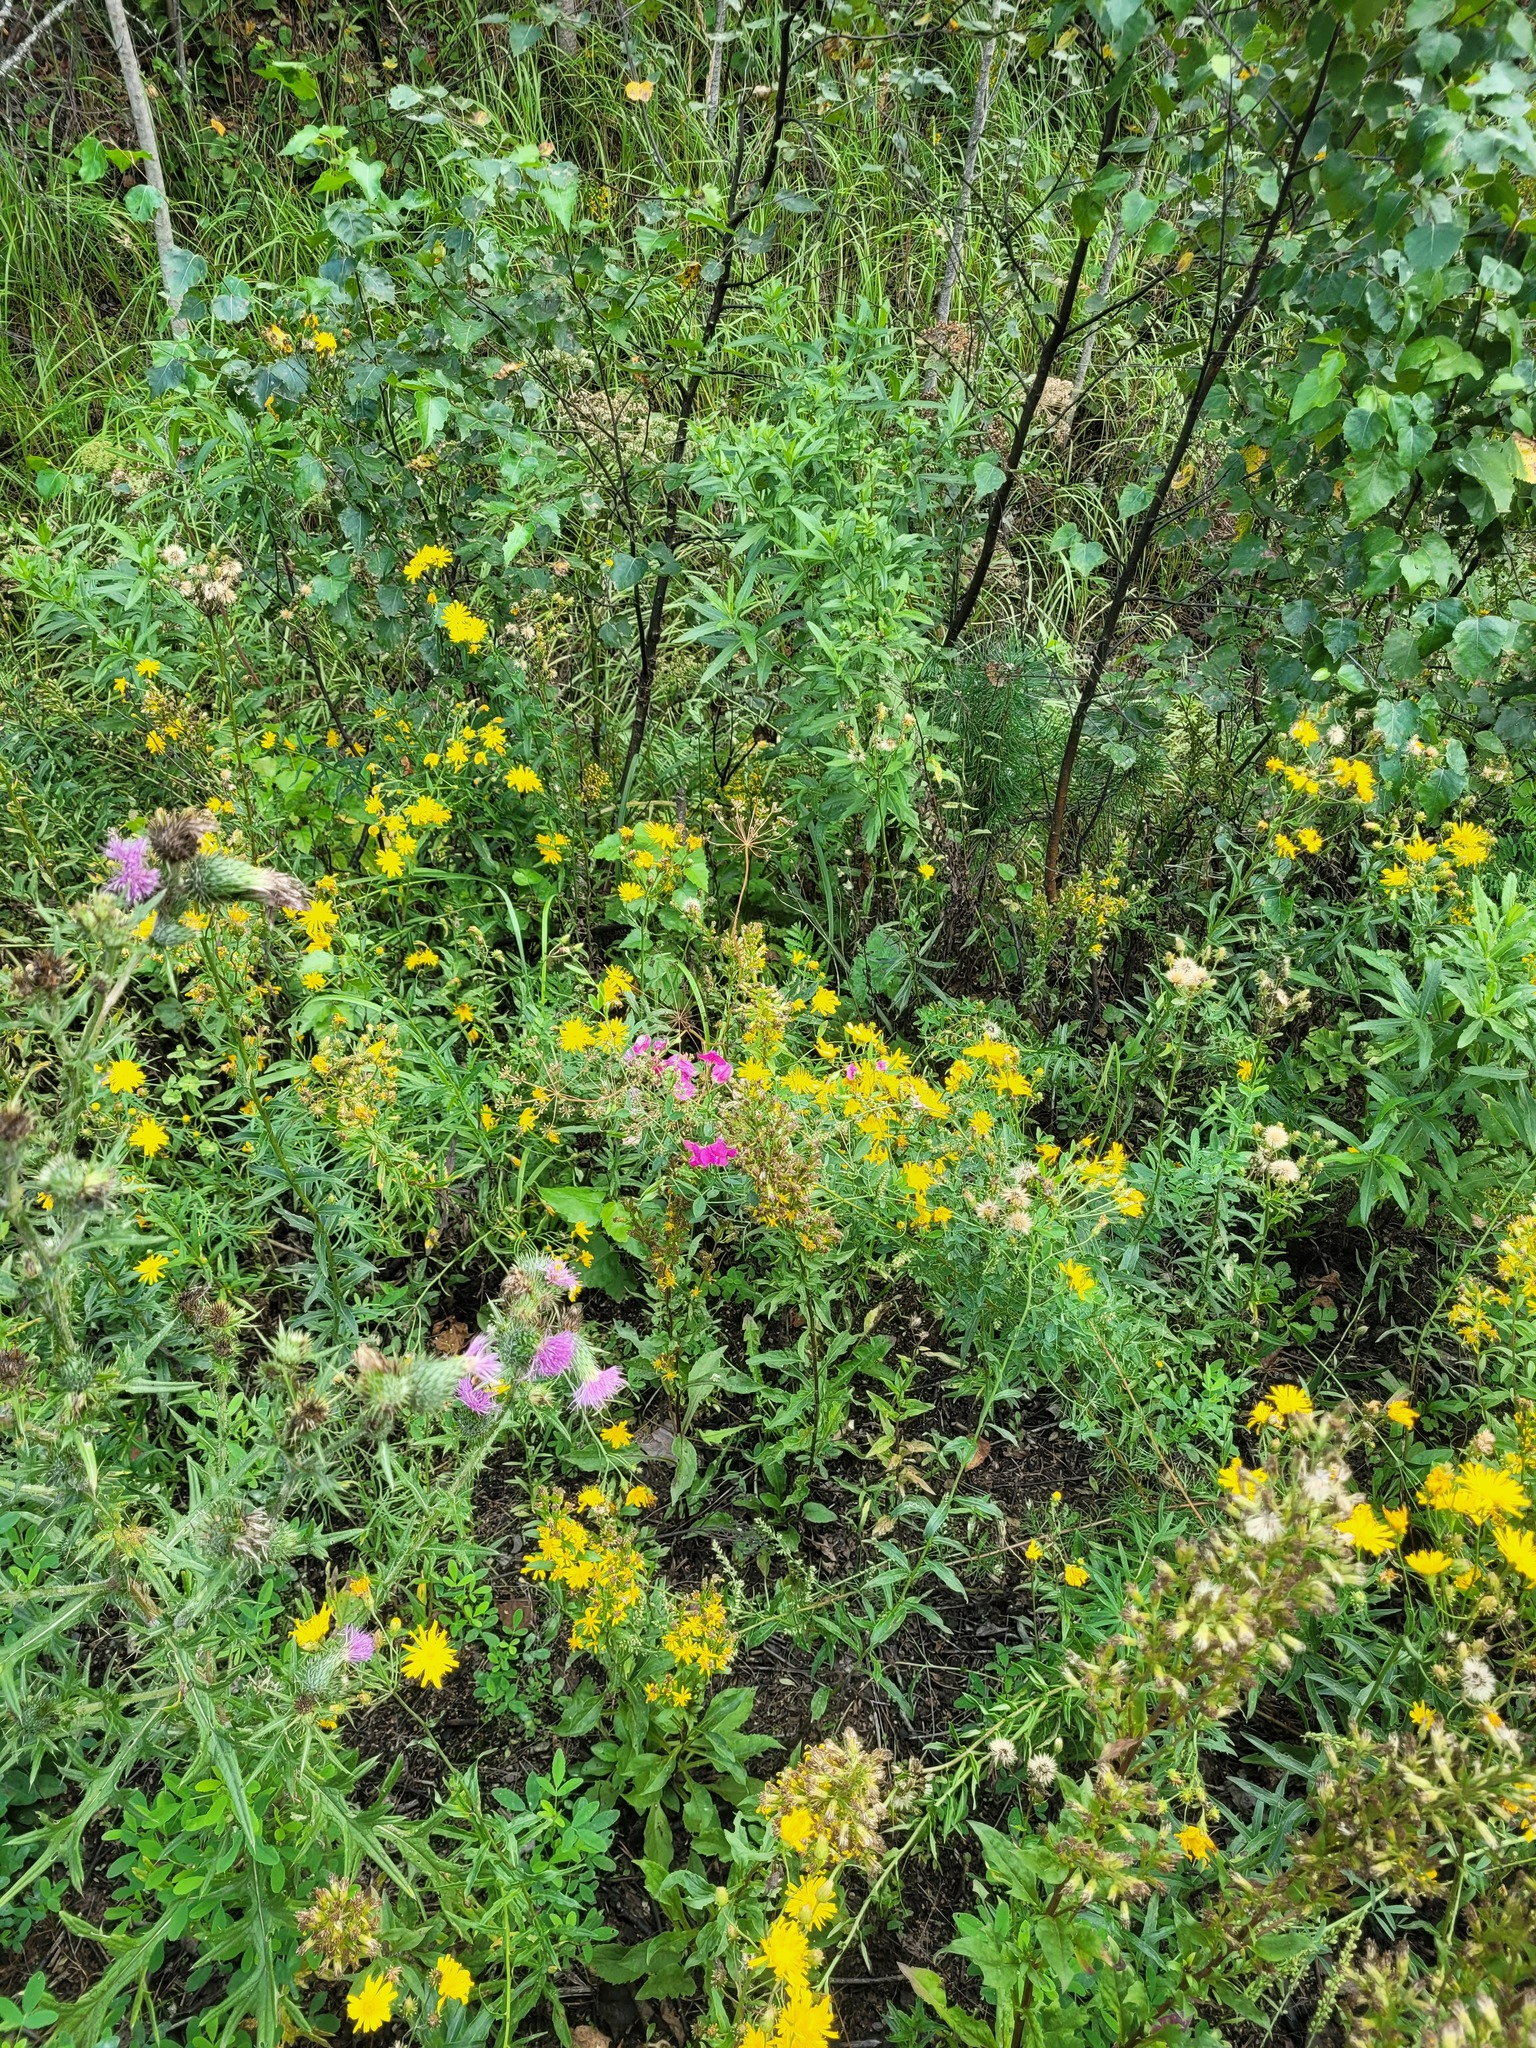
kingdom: Plantae
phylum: Tracheophyta
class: Magnoliopsida
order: Fabales
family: Fabaceae
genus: Lathyrus
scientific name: Lathyrus tuberosus
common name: Tuberous pea
